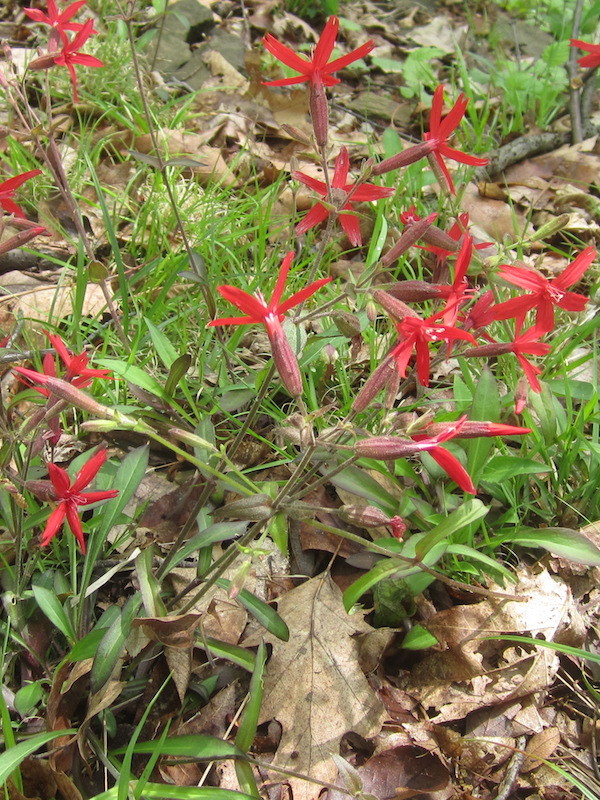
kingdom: Plantae
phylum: Tracheophyta
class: Magnoliopsida
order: Caryophyllales
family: Caryophyllaceae
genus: Silene
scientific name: Silene virginica
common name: Fire-pink
